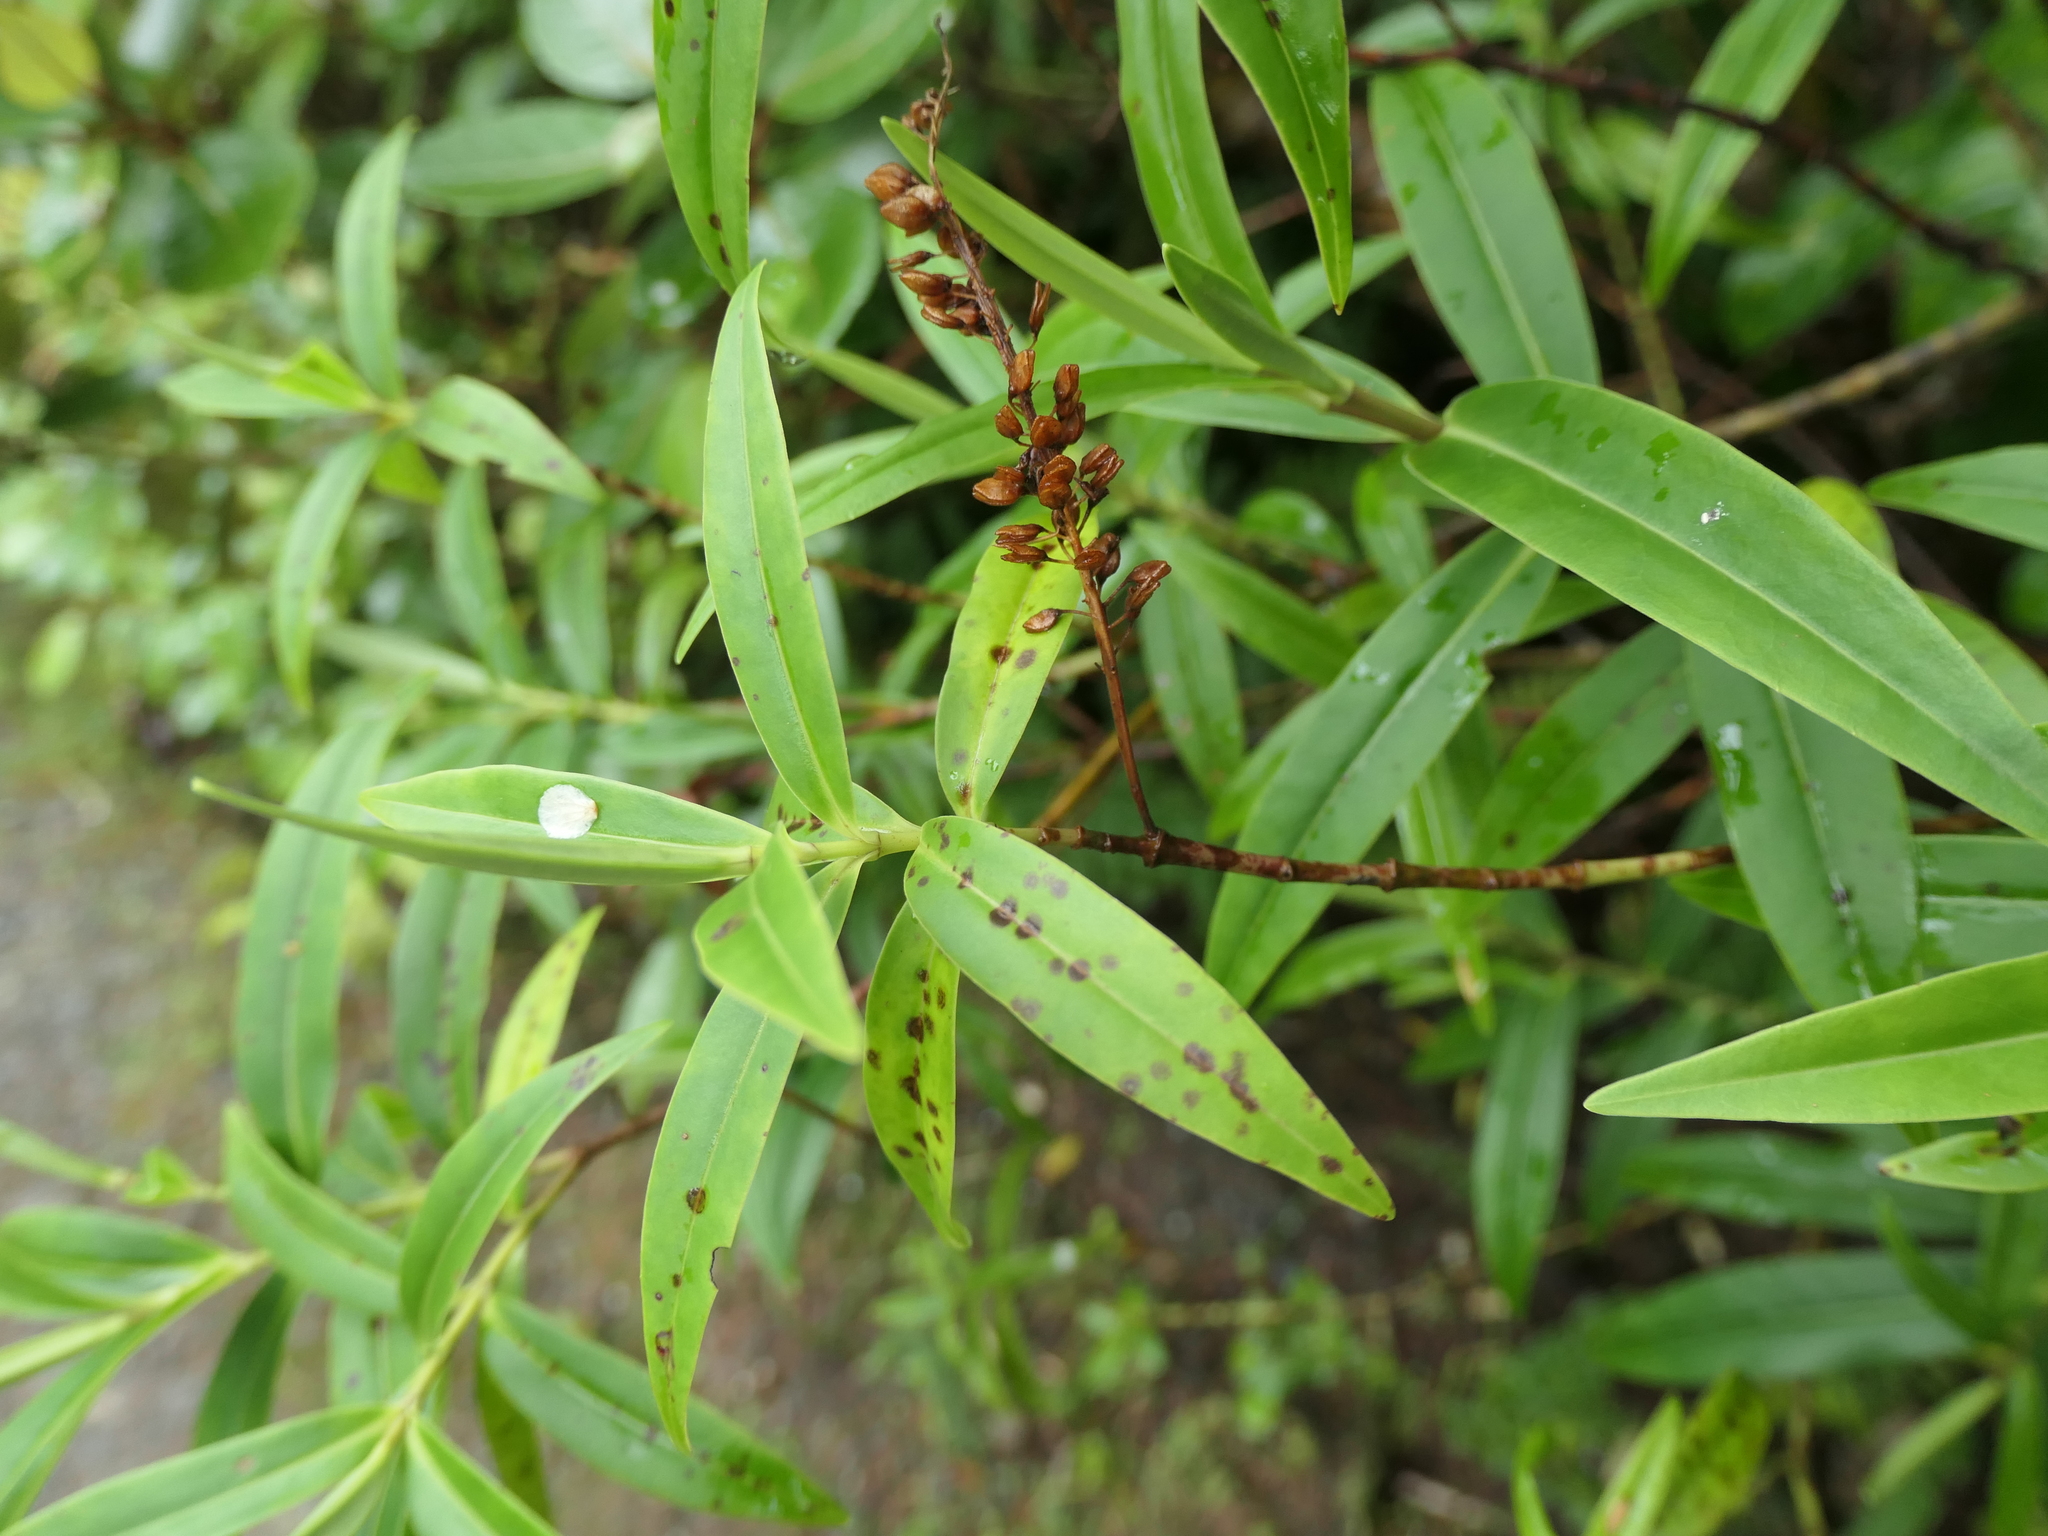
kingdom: Plantae
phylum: Tracheophyta
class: Magnoliopsida
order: Lamiales
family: Plantaginaceae
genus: Veronica
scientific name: Veronica stricta
